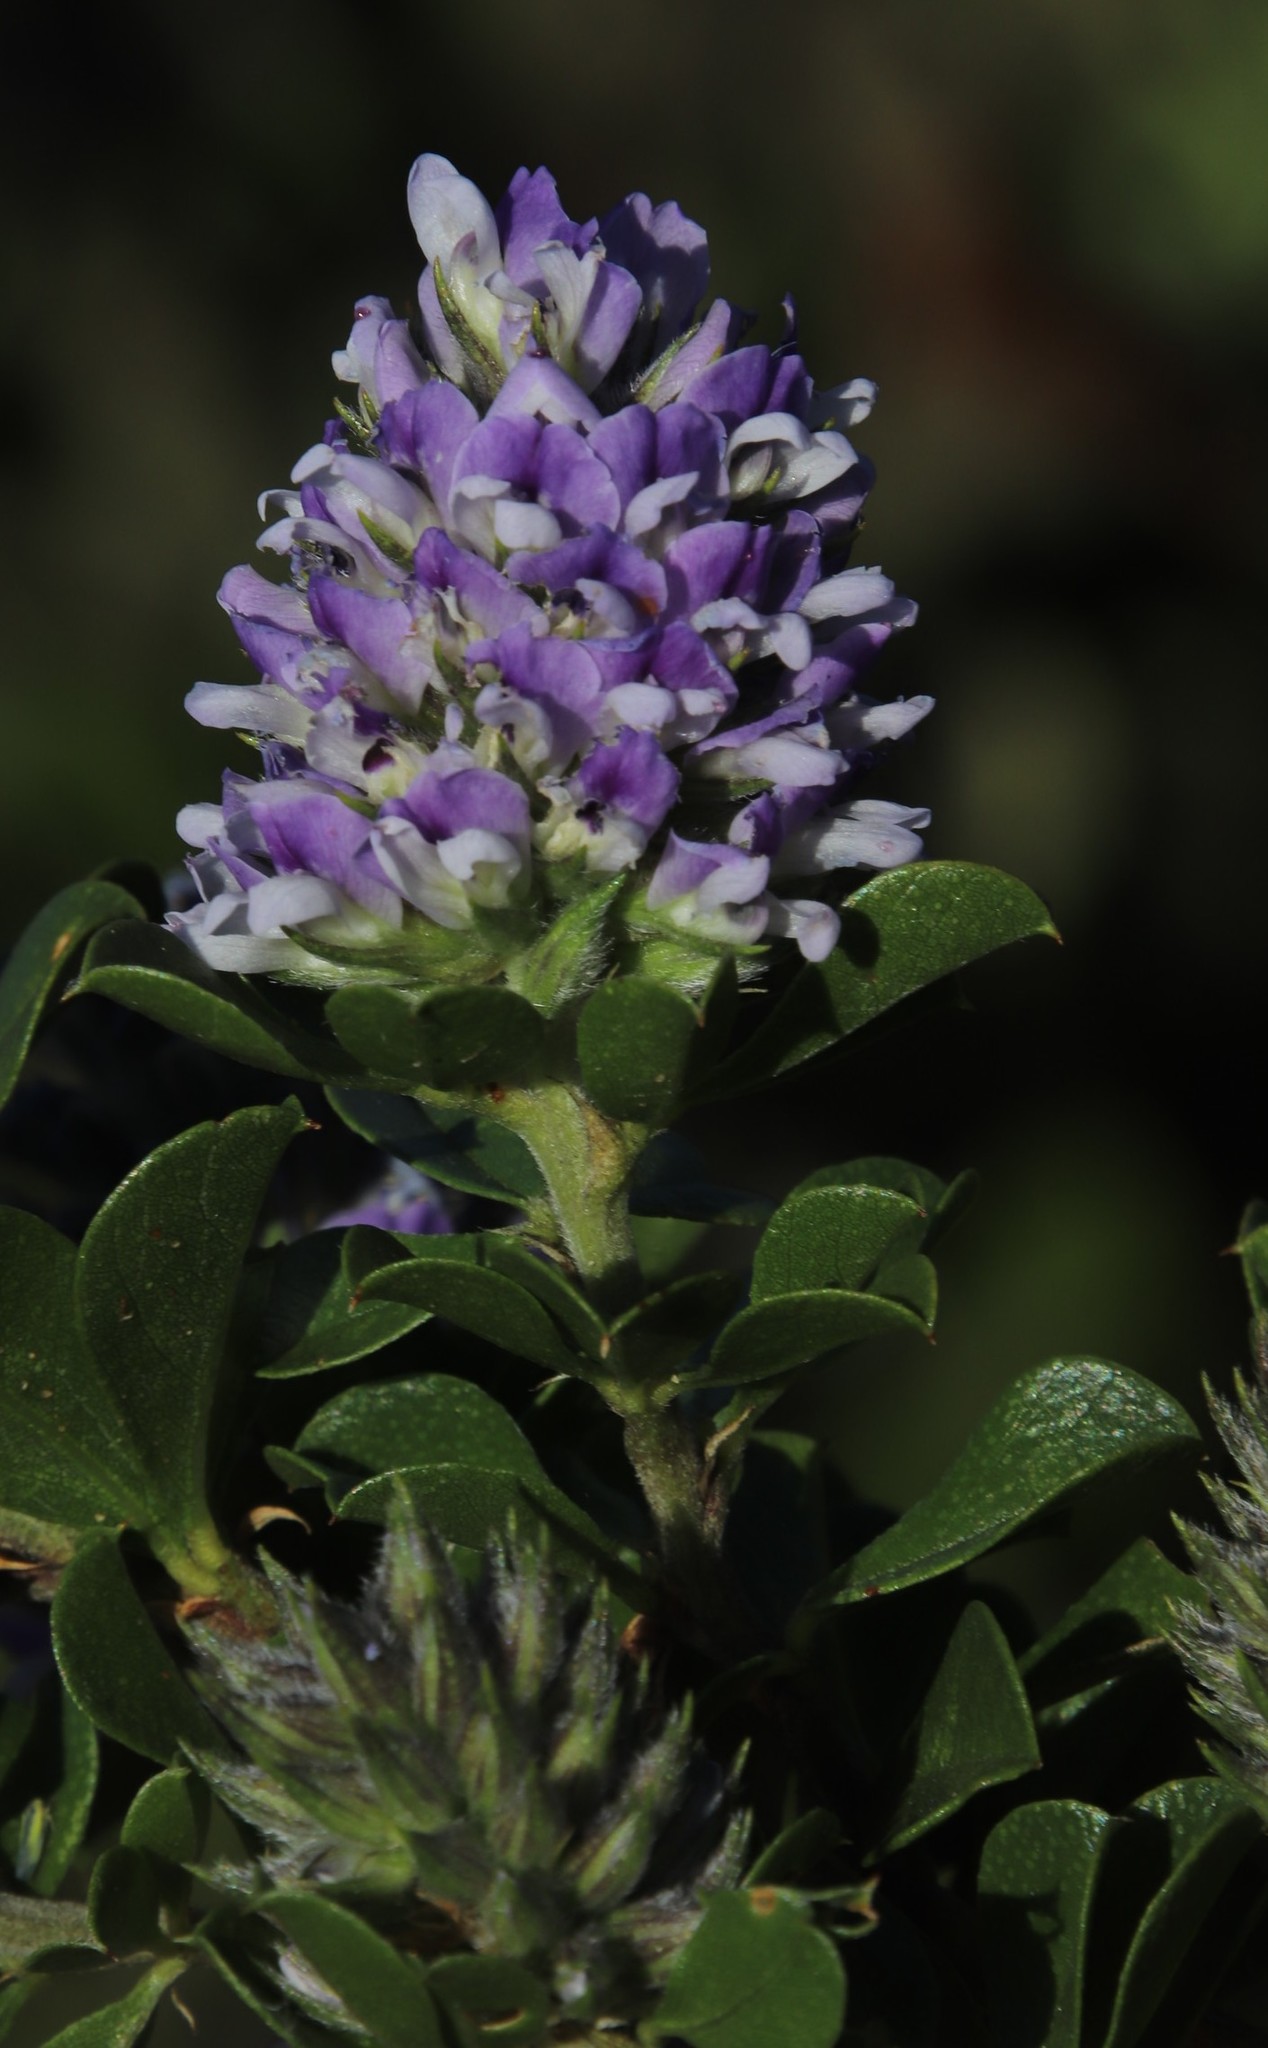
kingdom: Plantae
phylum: Tracheophyta
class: Magnoliopsida
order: Fabales
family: Fabaceae
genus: Psoralea
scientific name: Psoralea bracteolata
